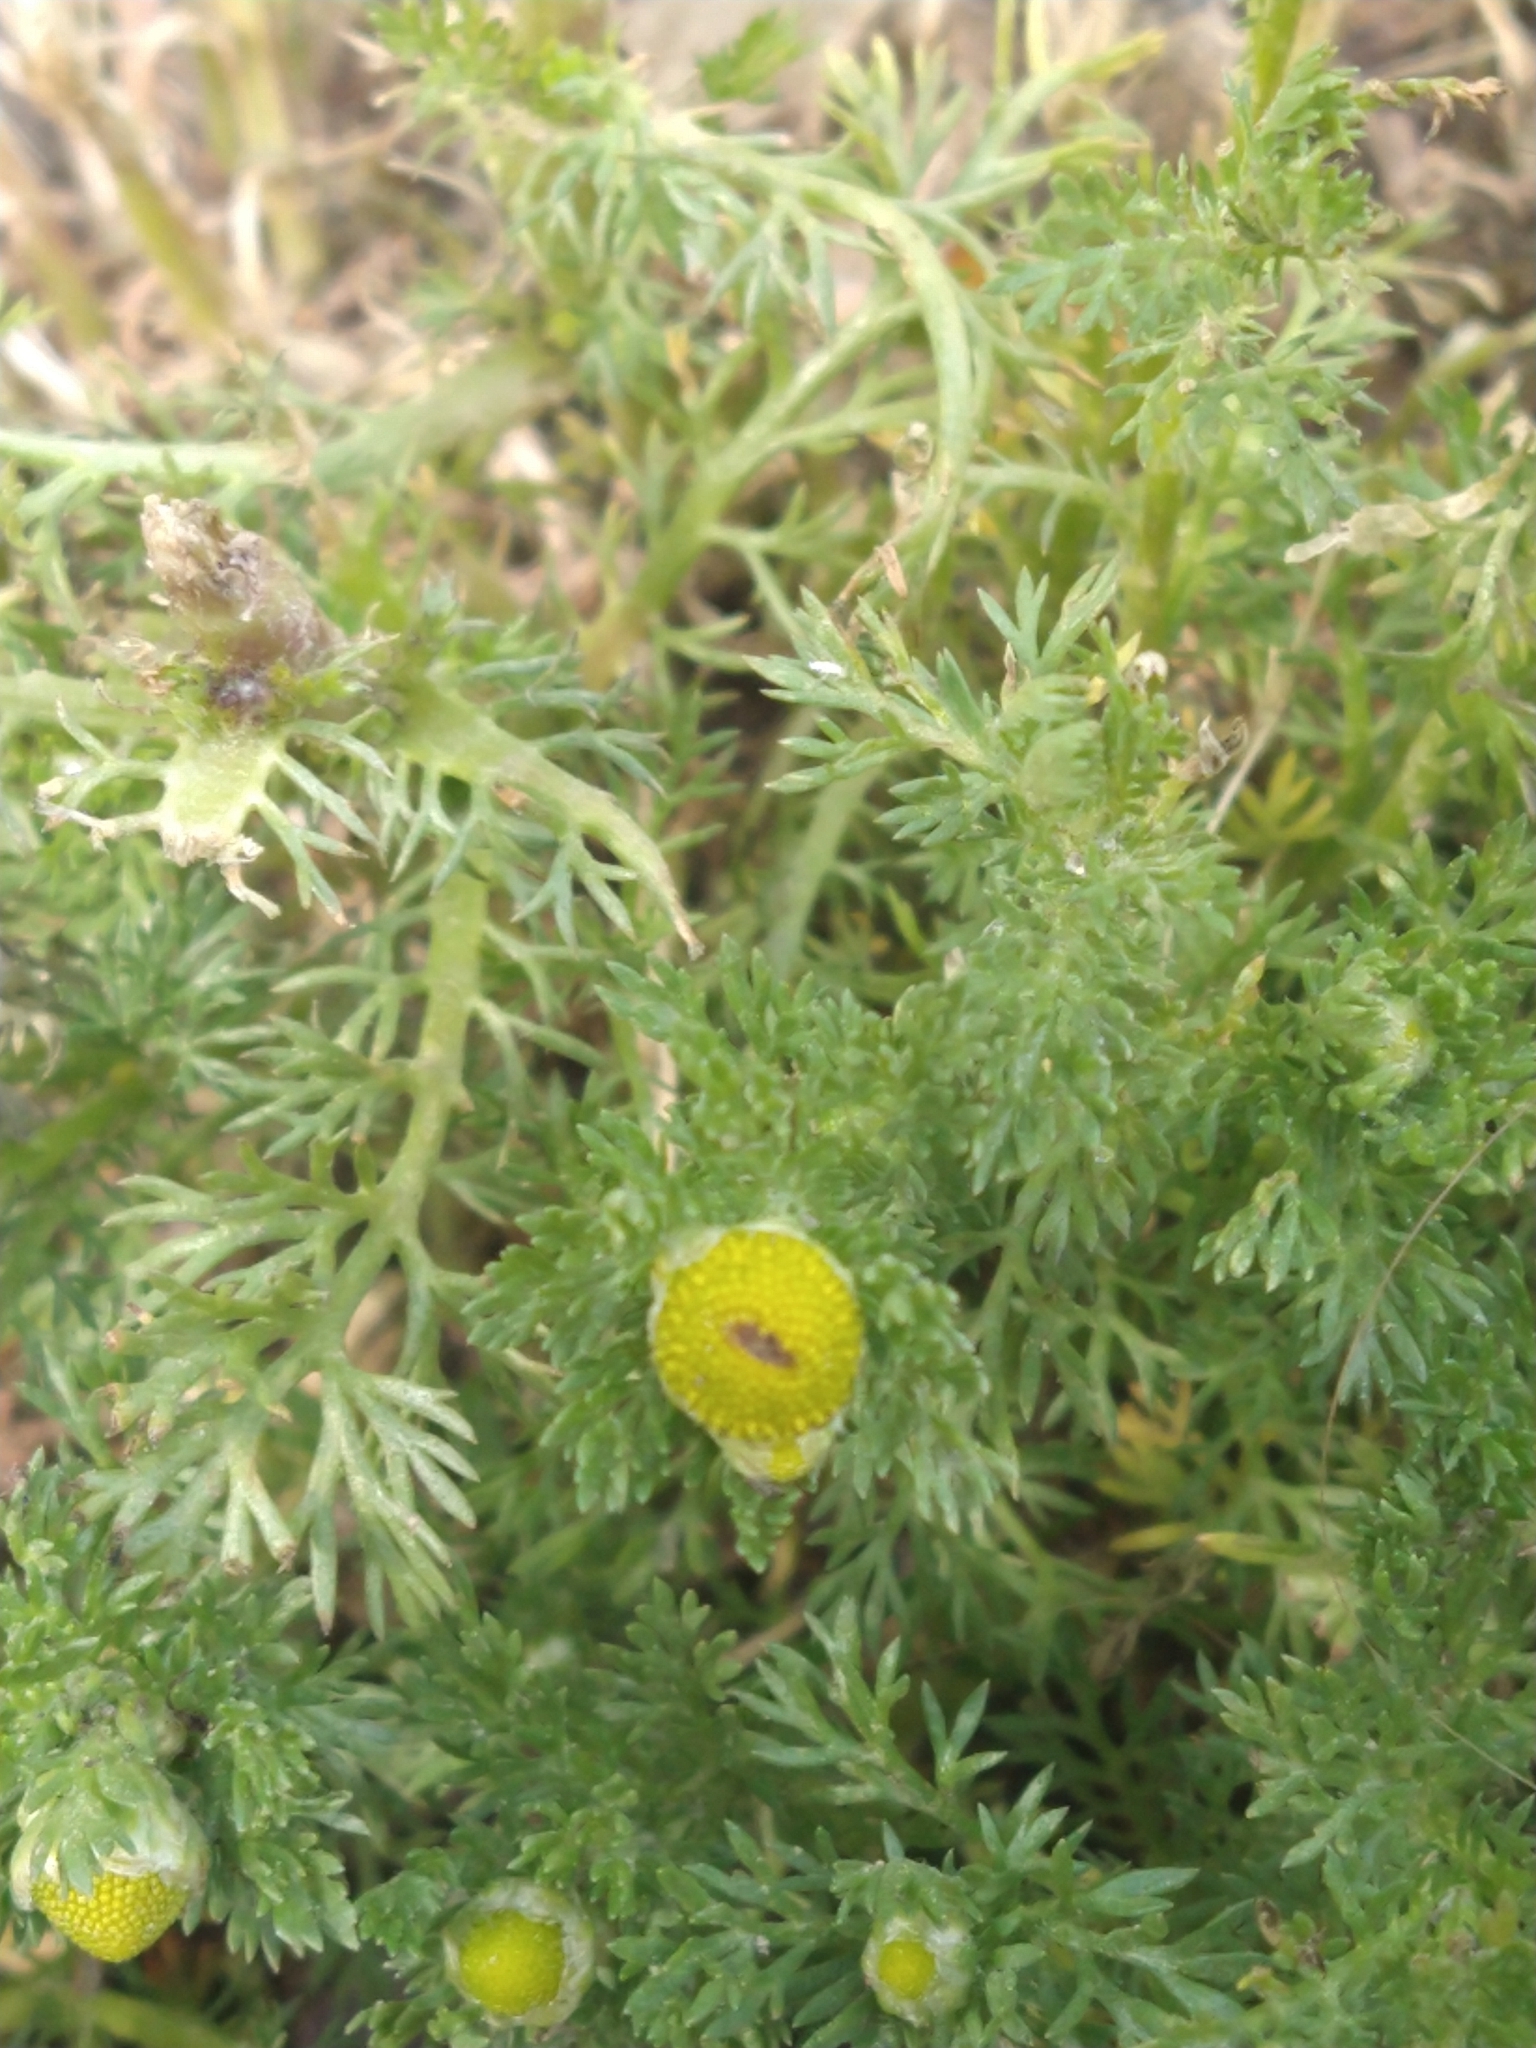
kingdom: Plantae
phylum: Tracheophyta
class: Magnoliopsida
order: Asterales
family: Asteraceae
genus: Matricaria
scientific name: Matricaria discoidea
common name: Disc mayweed
